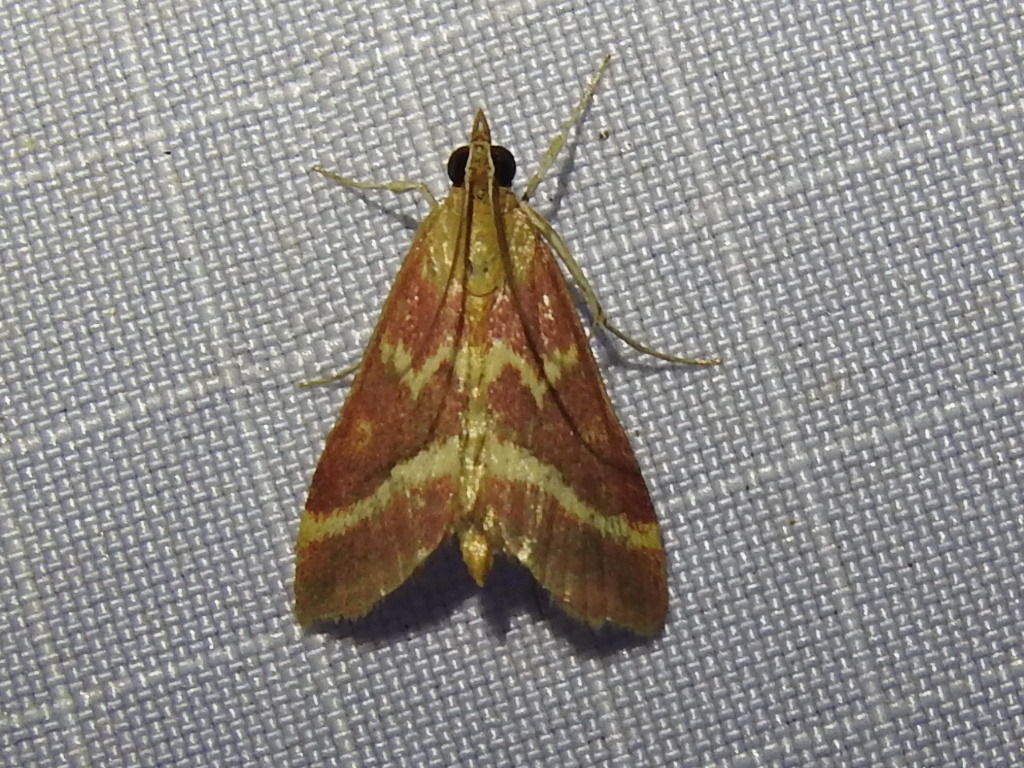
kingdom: Animalia
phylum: Arthropoda
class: Insecta
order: Lepidoptera
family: Crambidae
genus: Pyrausta
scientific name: Pyrausta volupialis
